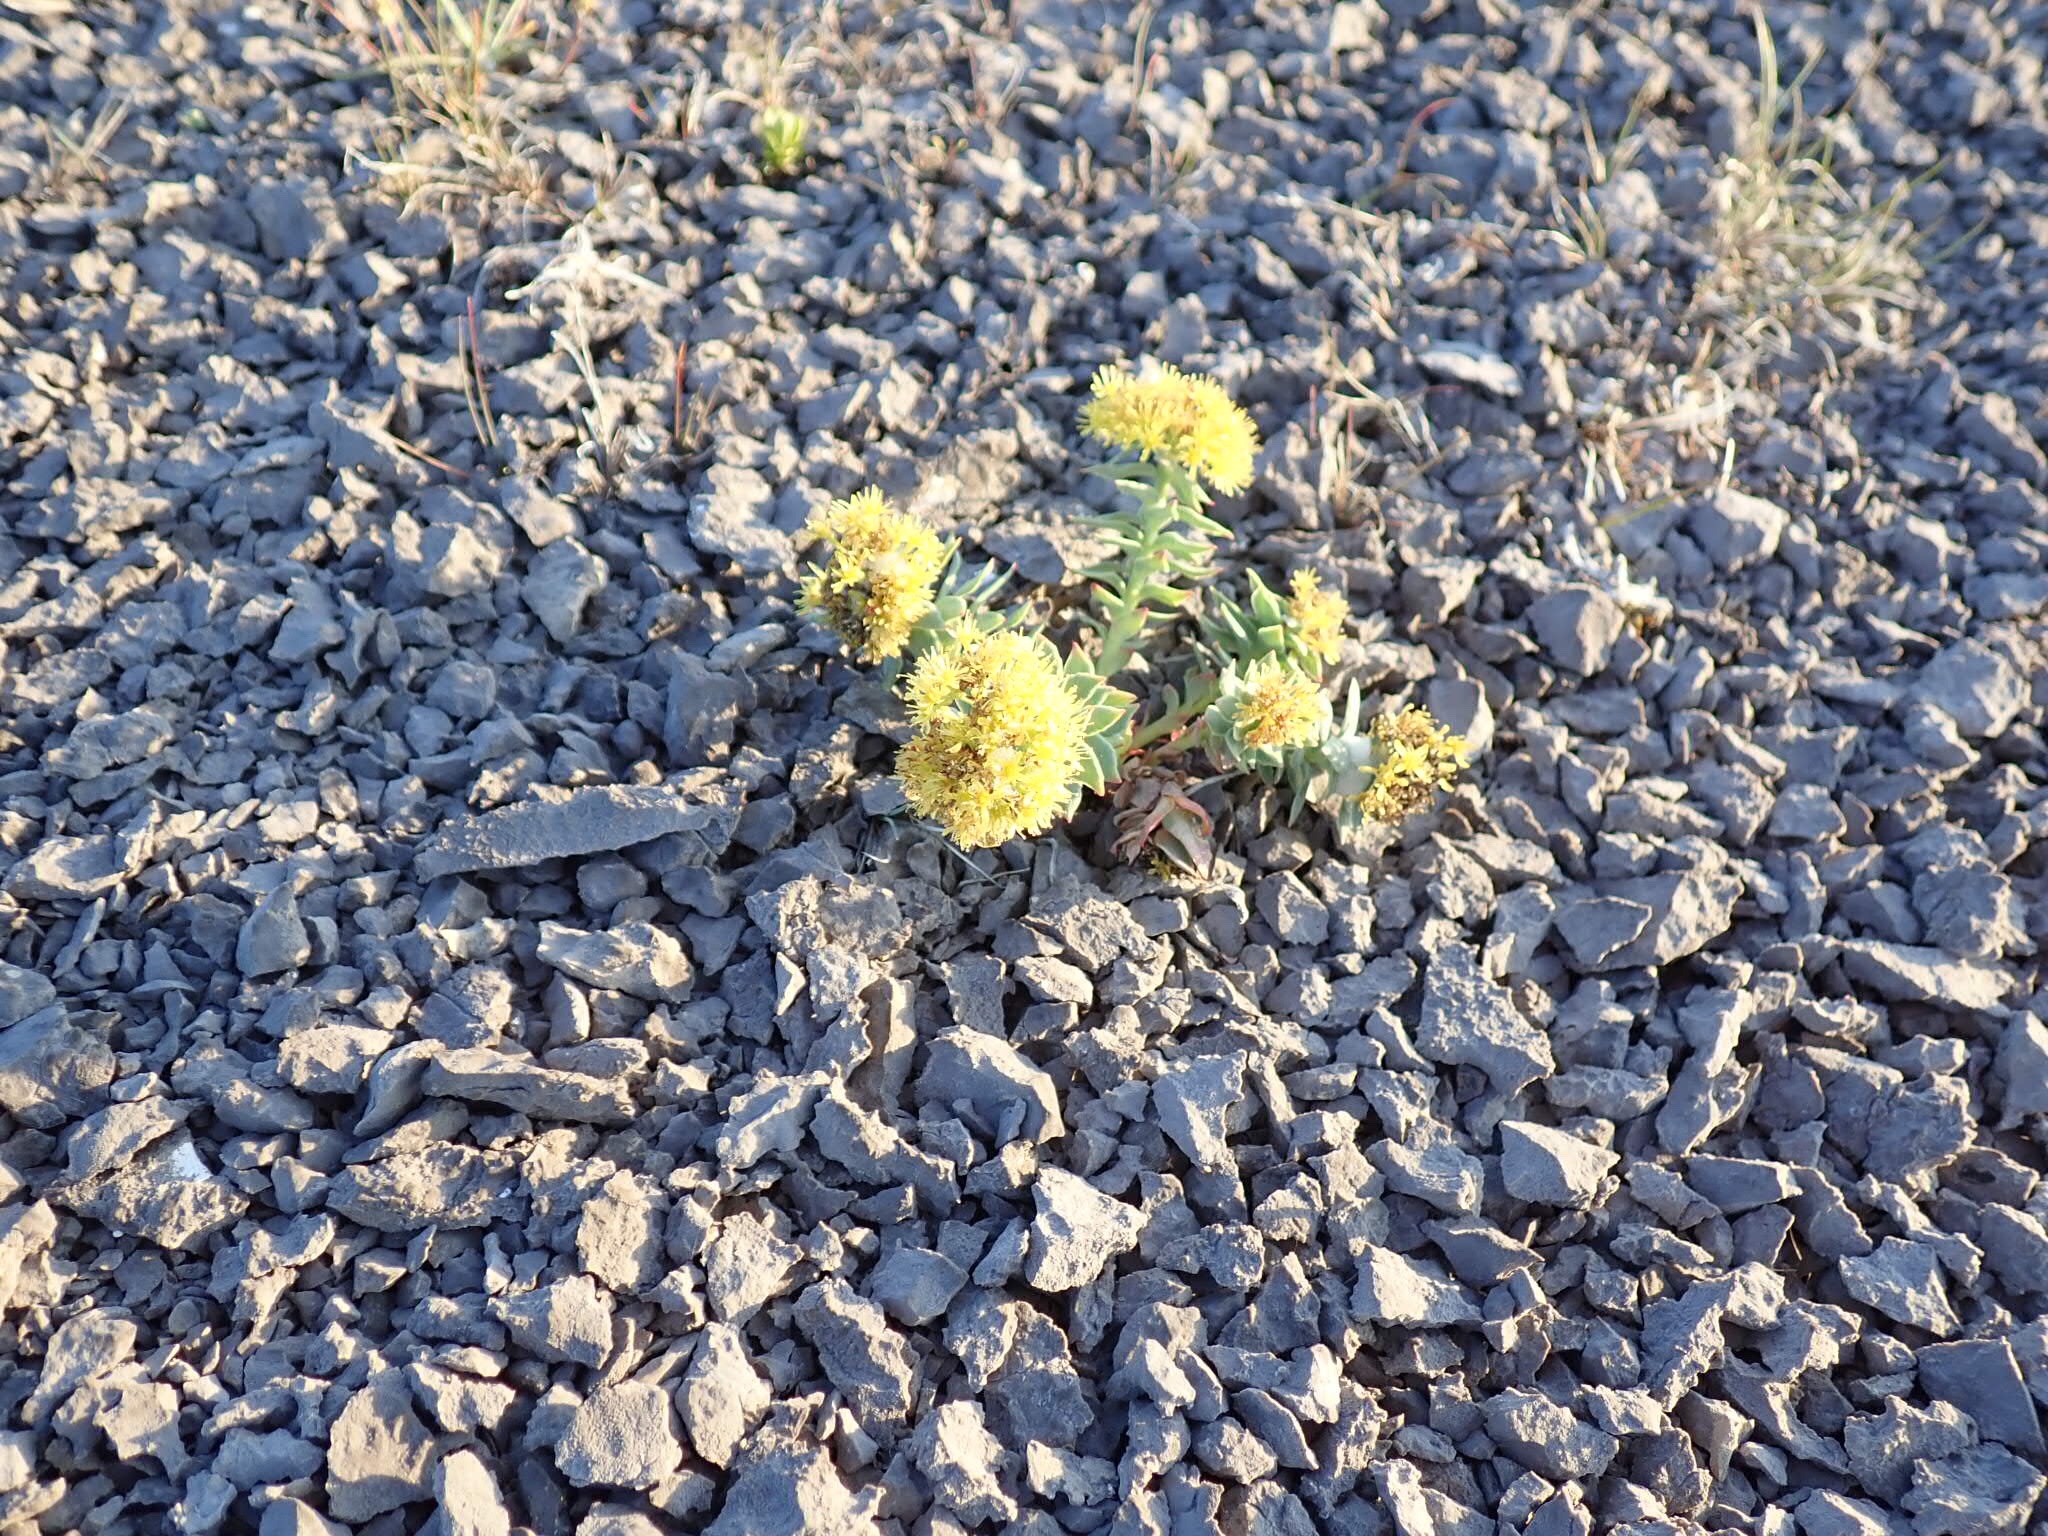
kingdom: Plantae
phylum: Tracheophyta
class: Magnoliopsida
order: Saxifragales
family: Crassulaceae
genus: Rhodiola
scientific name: Rhodiola rosea
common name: Roseroot
